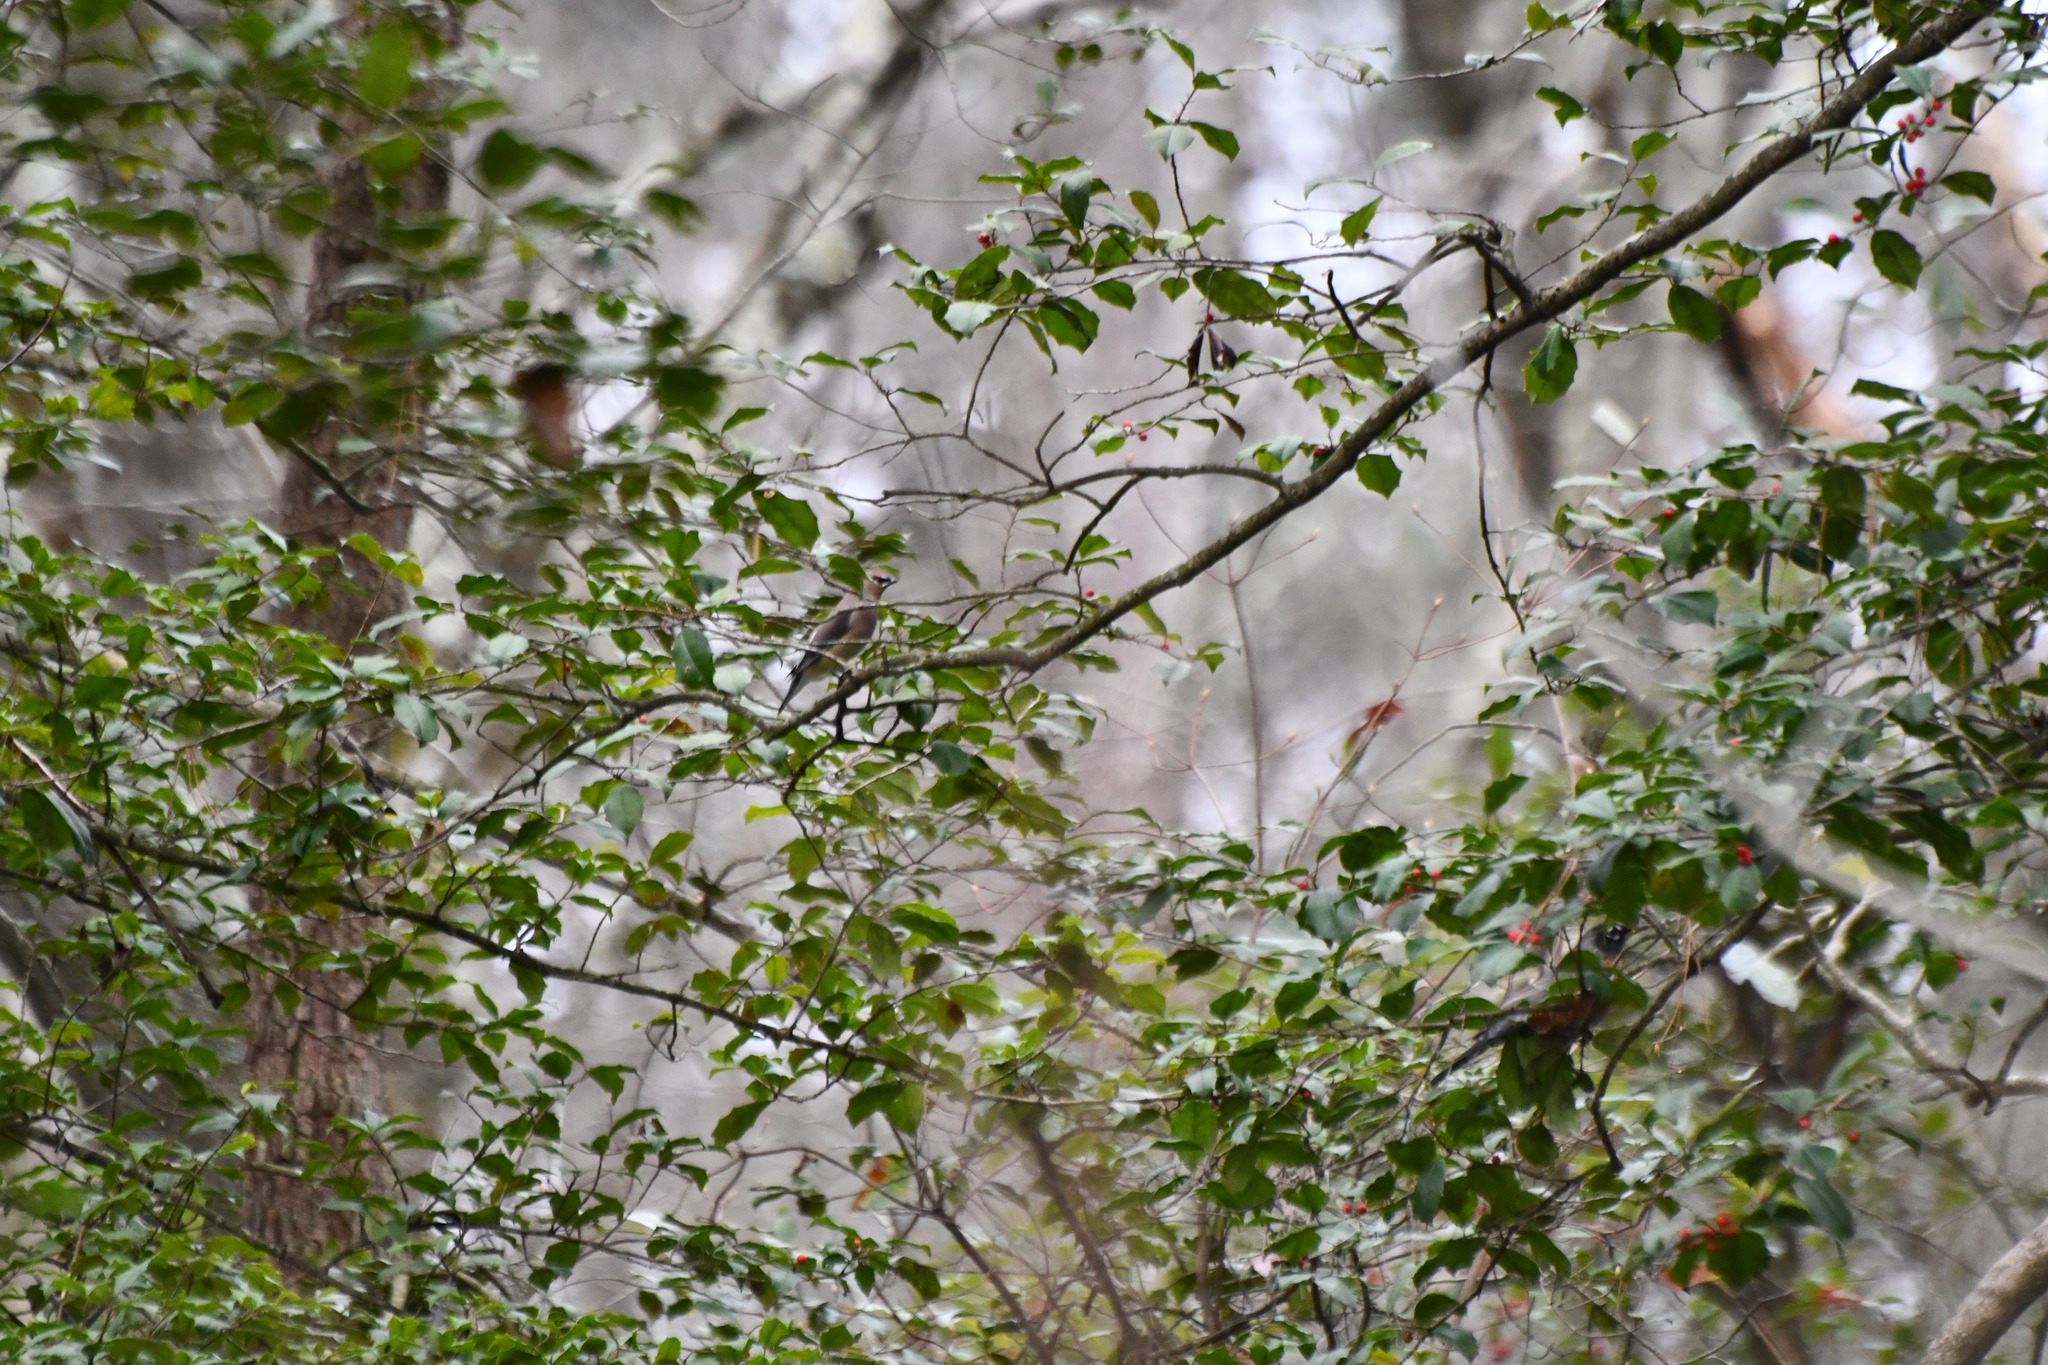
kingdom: Animalia
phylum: Chordata
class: Aves
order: Passeriformes
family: Bombycillidae
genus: Bombycilla
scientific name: Bombycilla cedrorum
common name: Cedar waxwing
